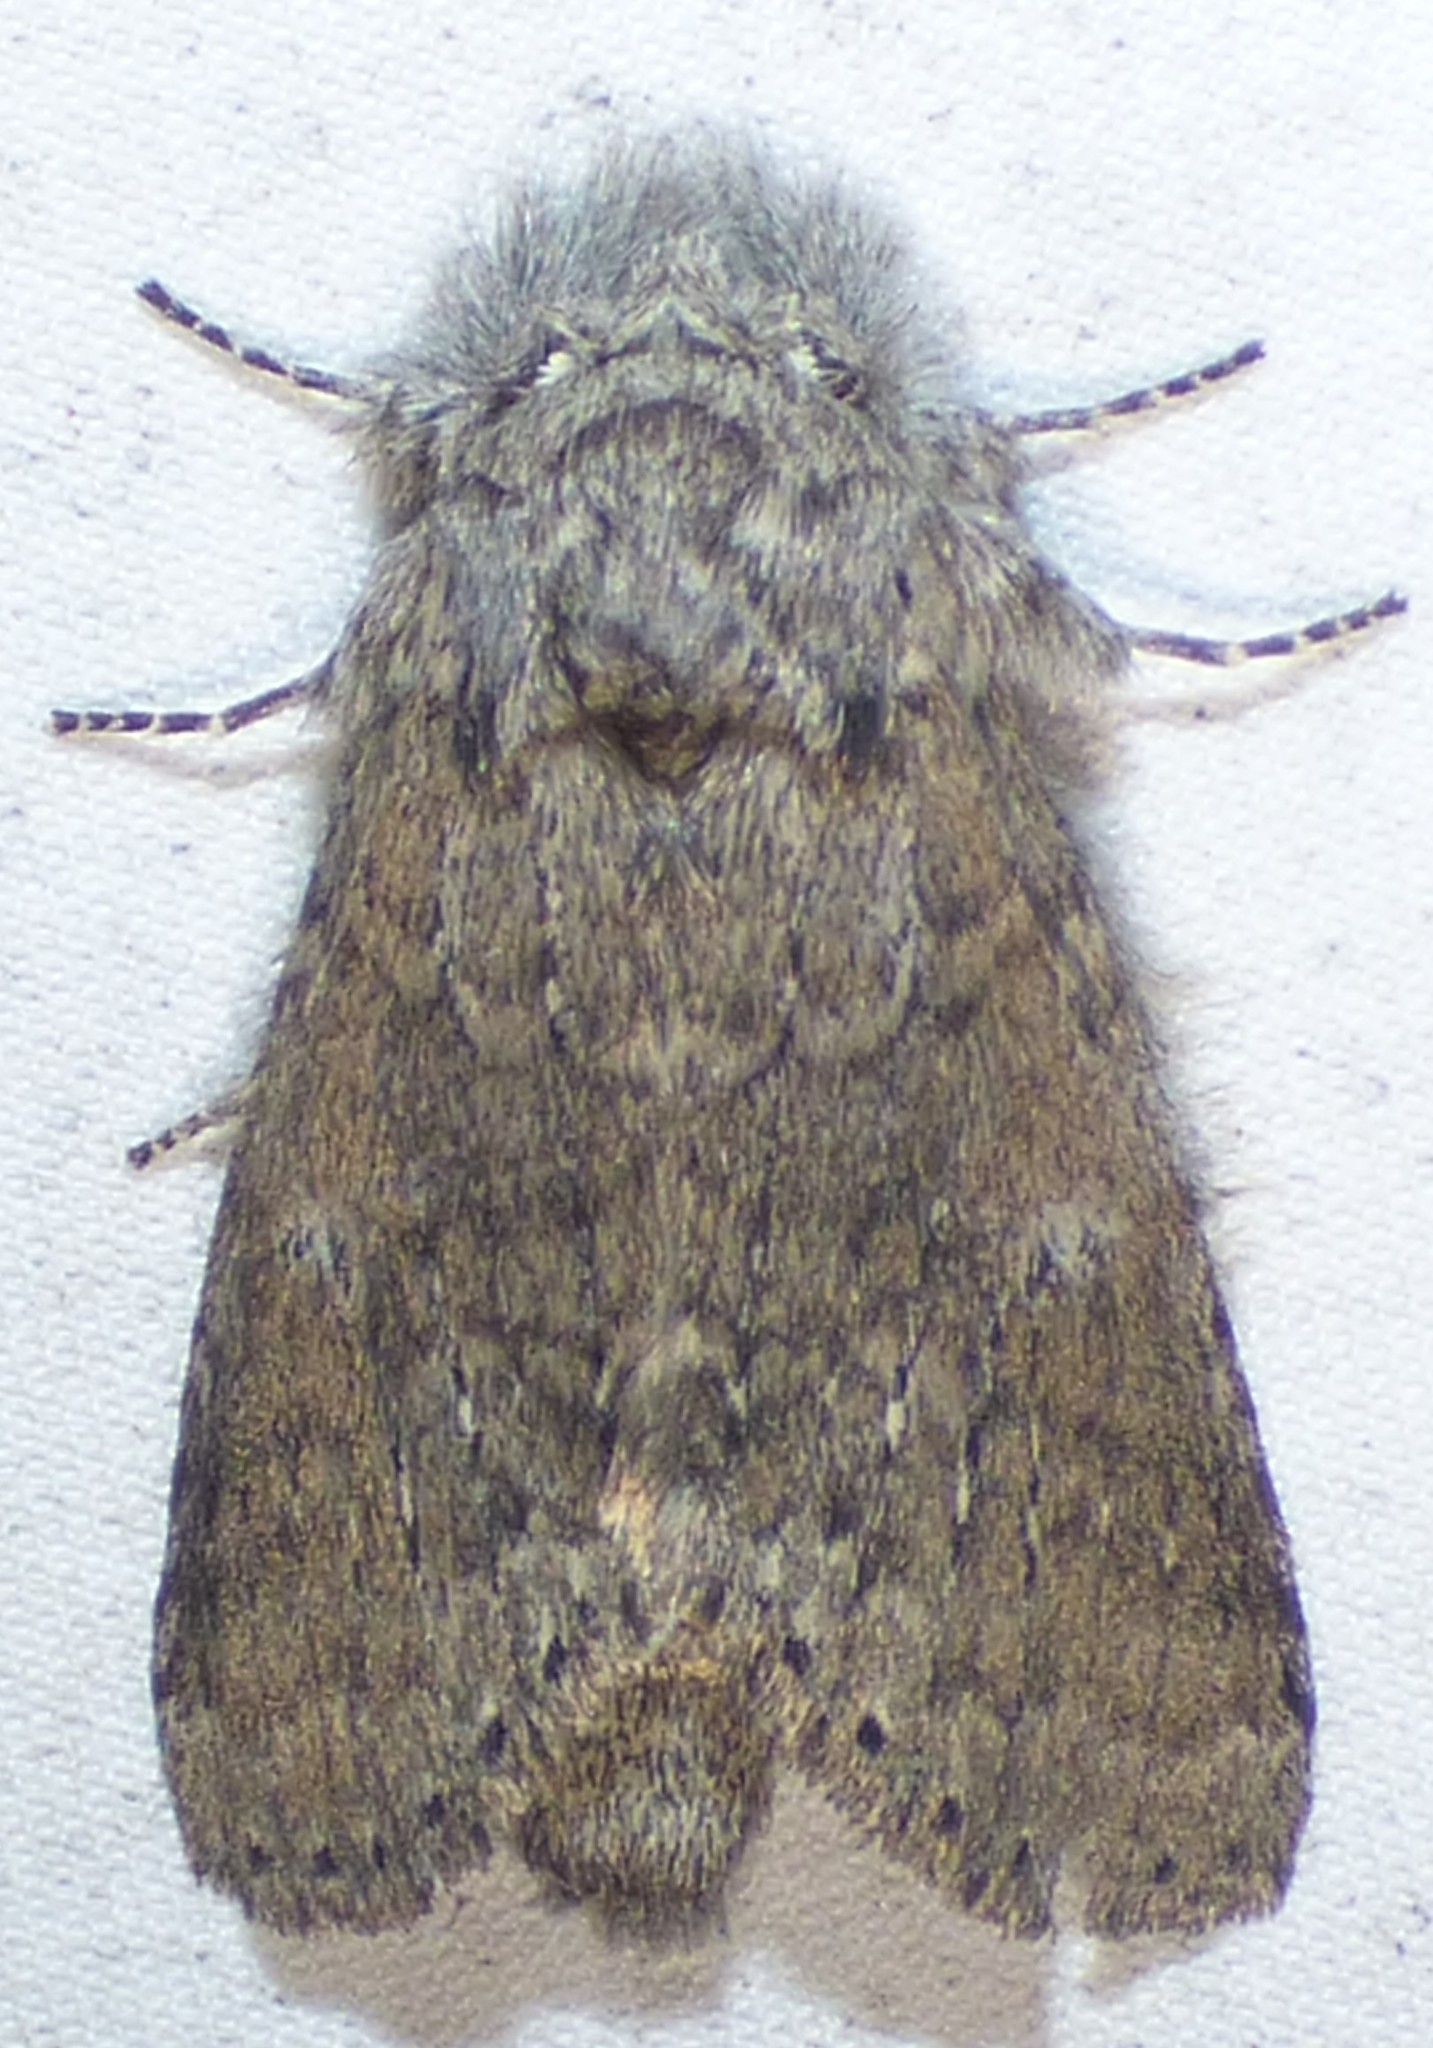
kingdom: Animalia
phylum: Arthropoda
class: Insecta
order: Lepidoptera
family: Notodontidae
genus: Lochmaeus
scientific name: Lochmaeus manteo
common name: Variable oakleaf caterpillar moth
